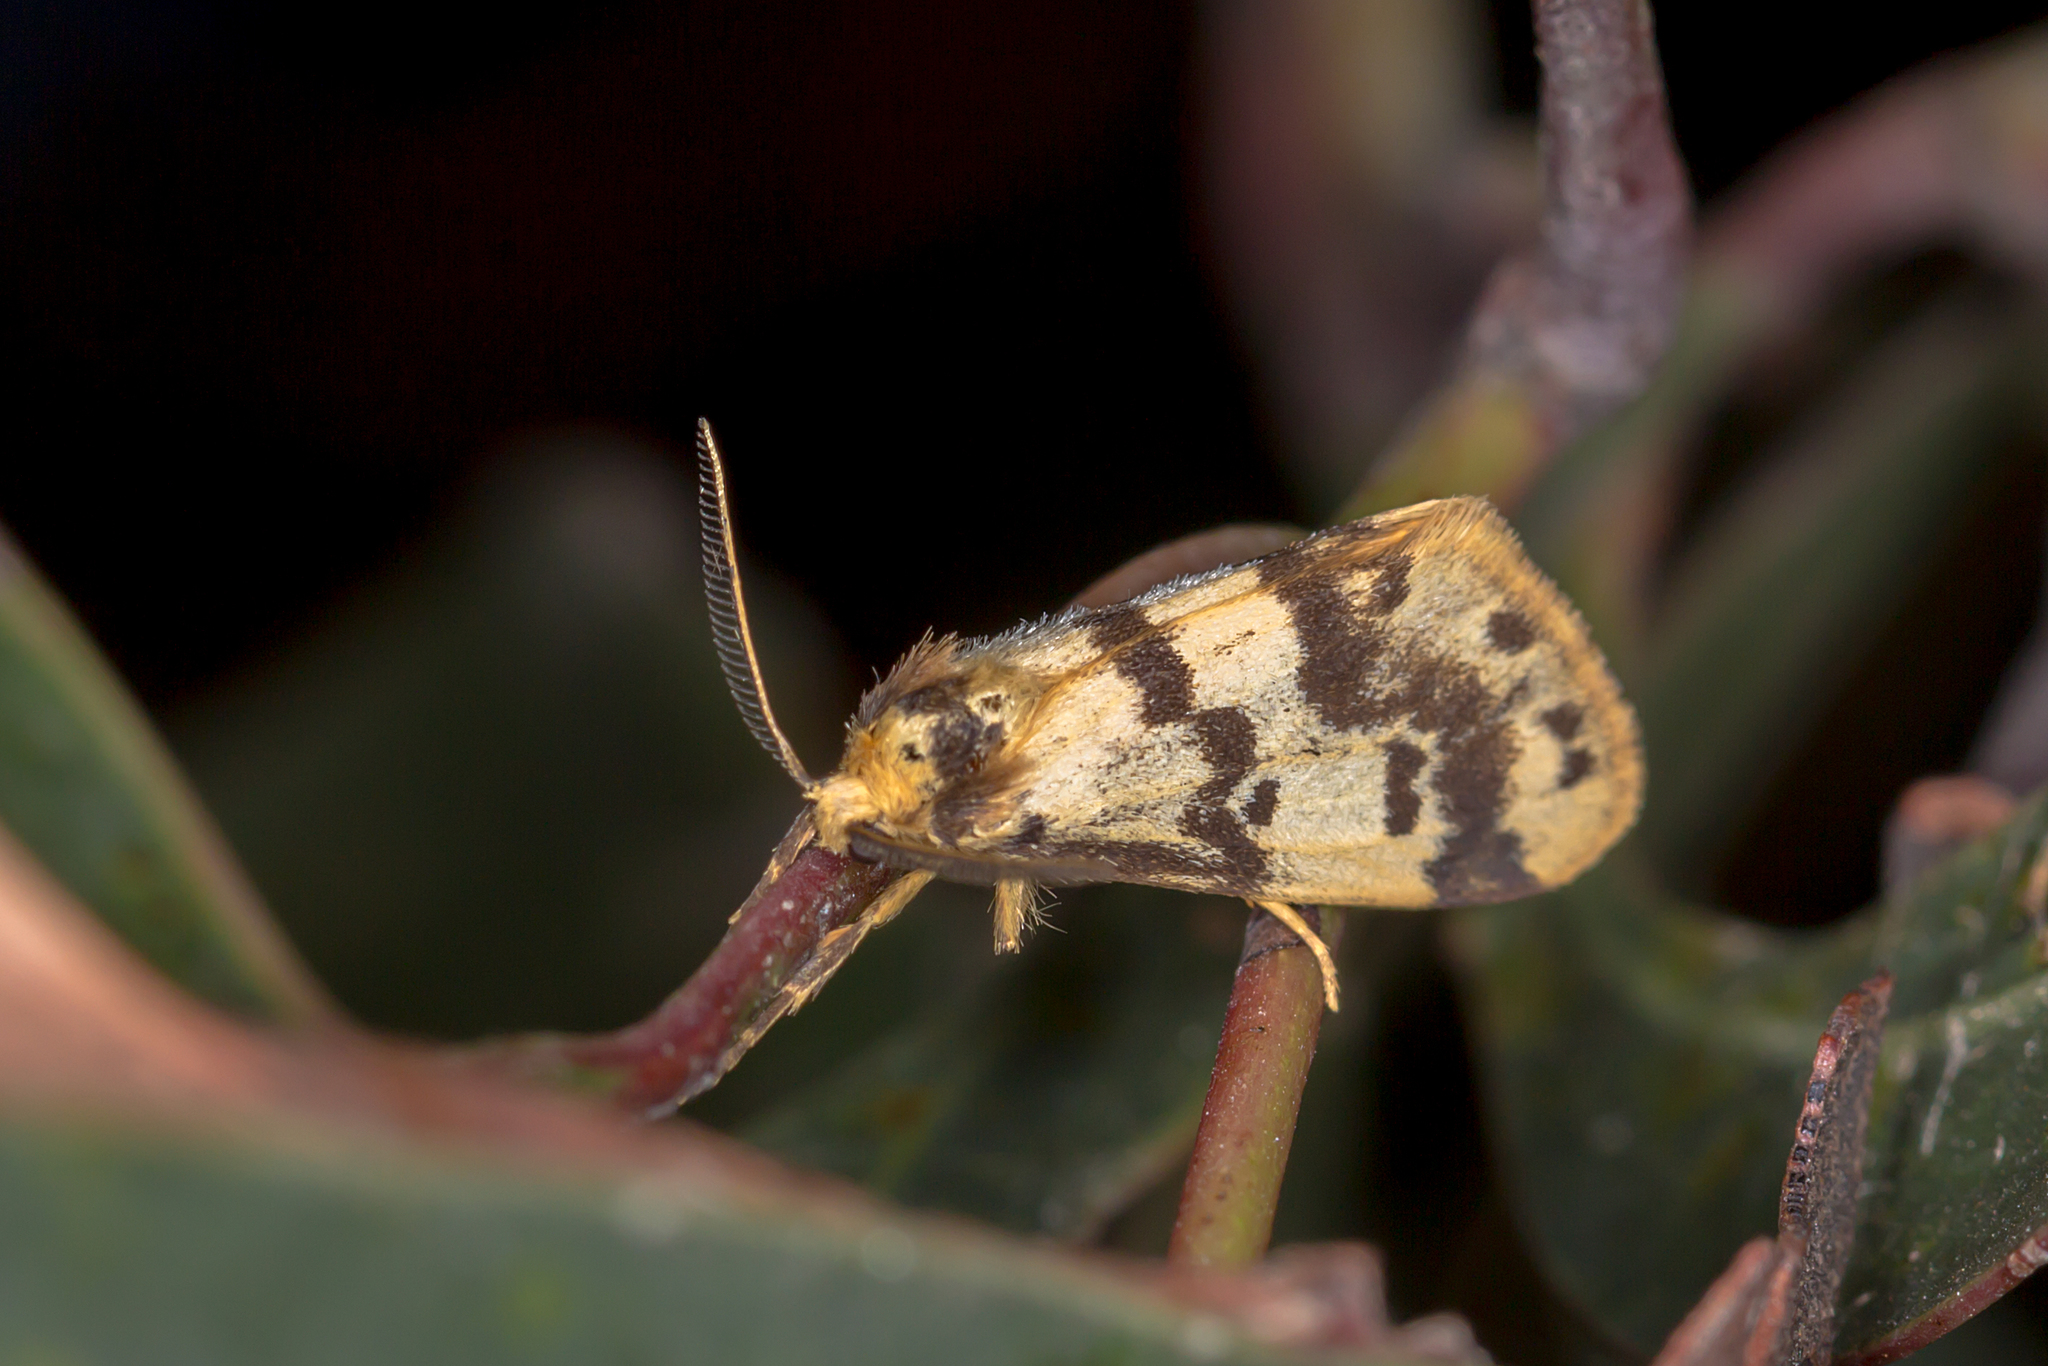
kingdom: Animalia
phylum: Arthropoda
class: Insecta
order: Lepidoptera
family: Erebidae
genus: Anestia
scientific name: Anestia
